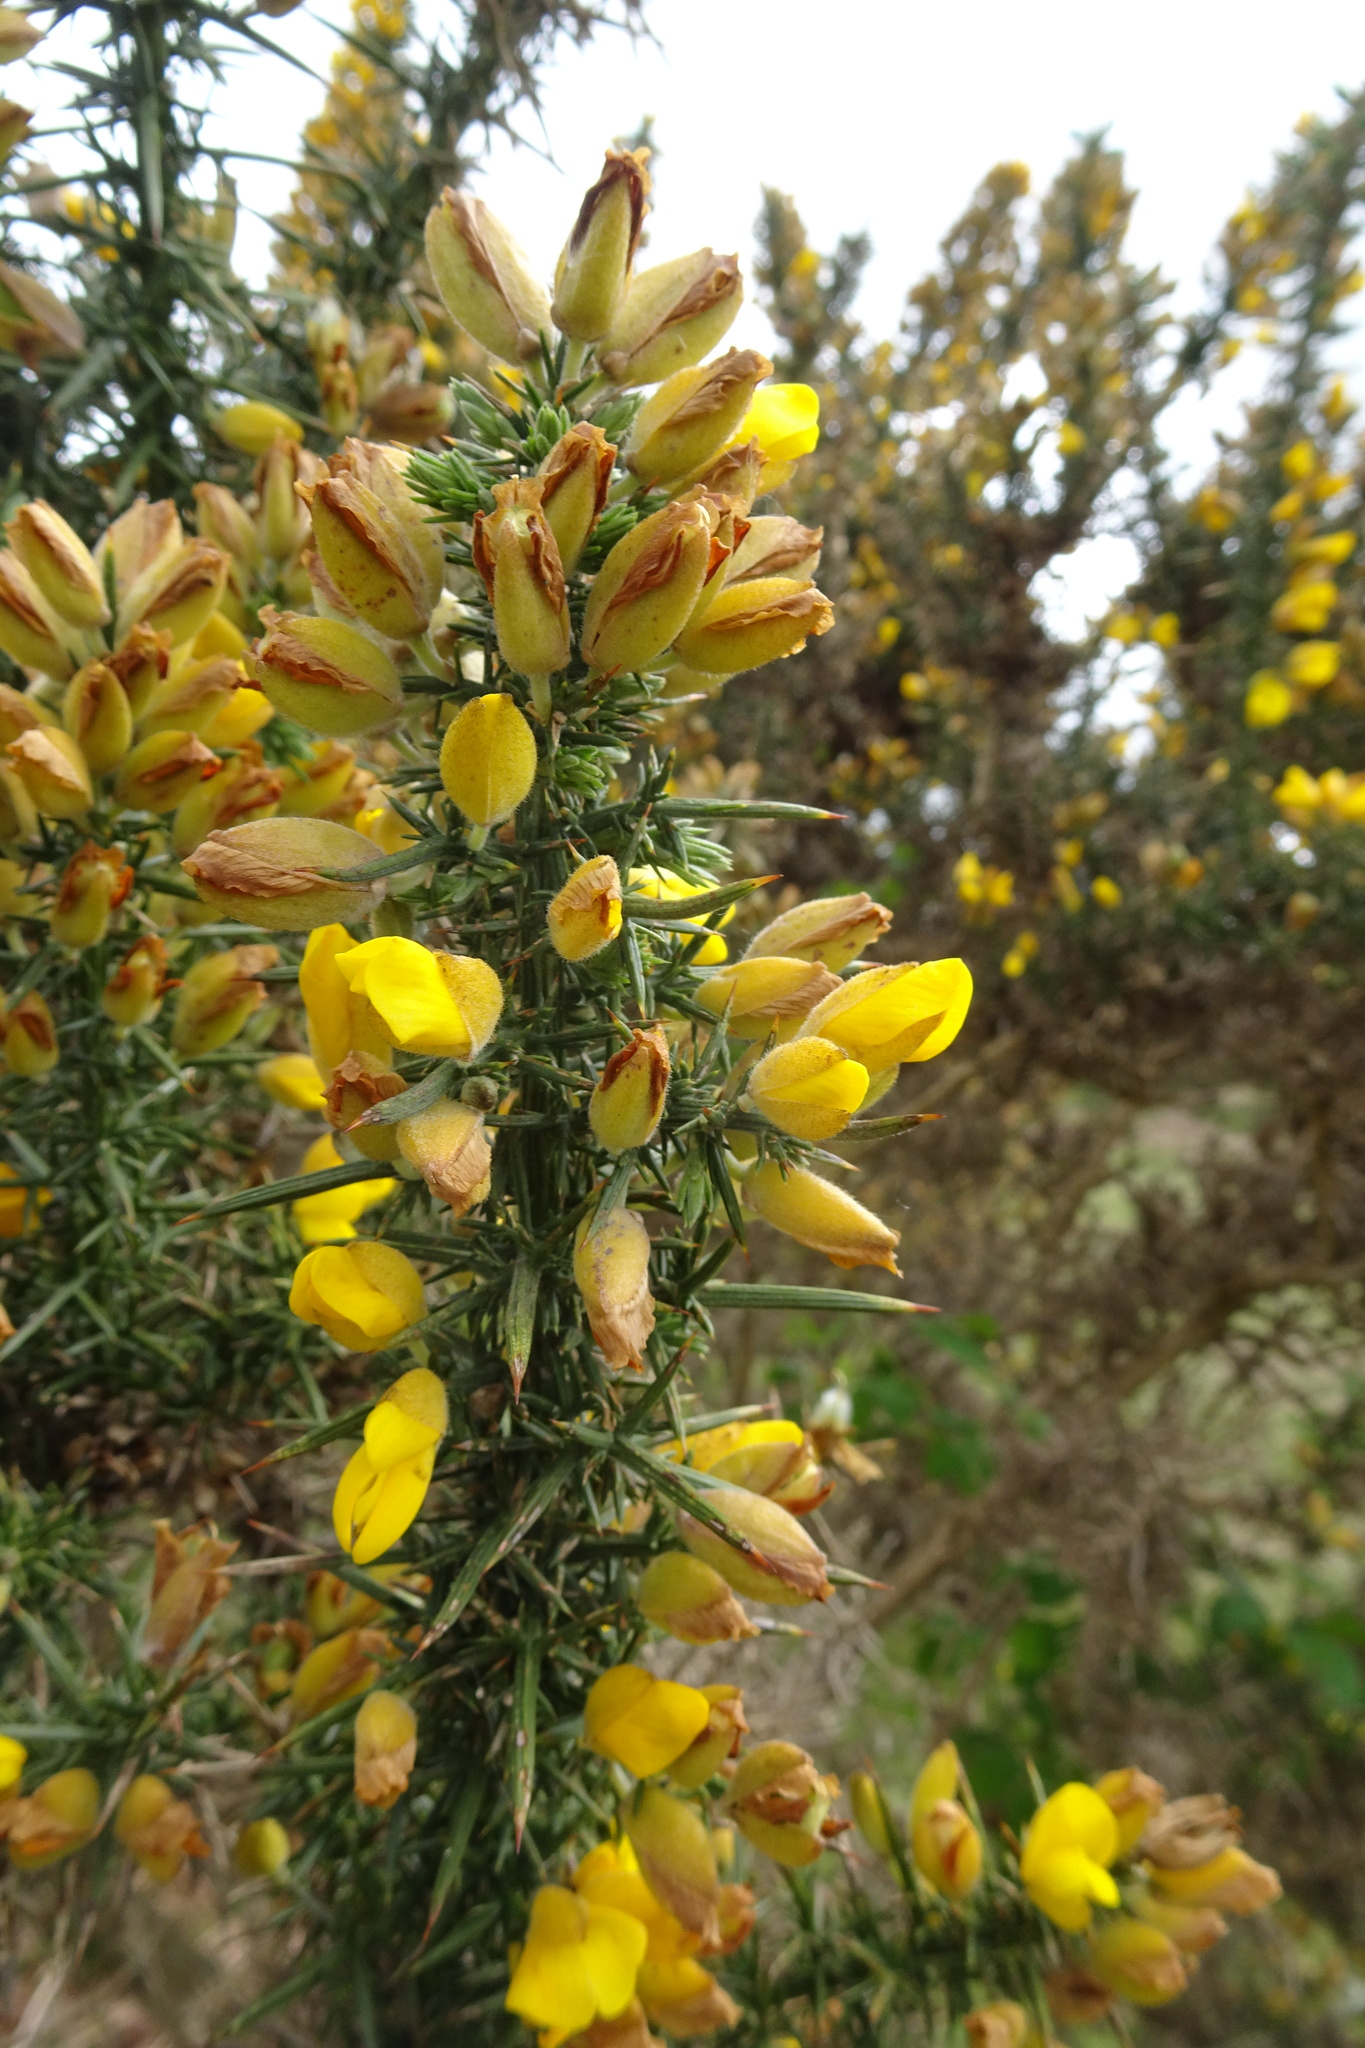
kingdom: Plantae
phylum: Tracheophyta
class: Magnoliopsida
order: Fabales
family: Fabaceae
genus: Ulex
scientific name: Ulex europaeus
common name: Common gorse
